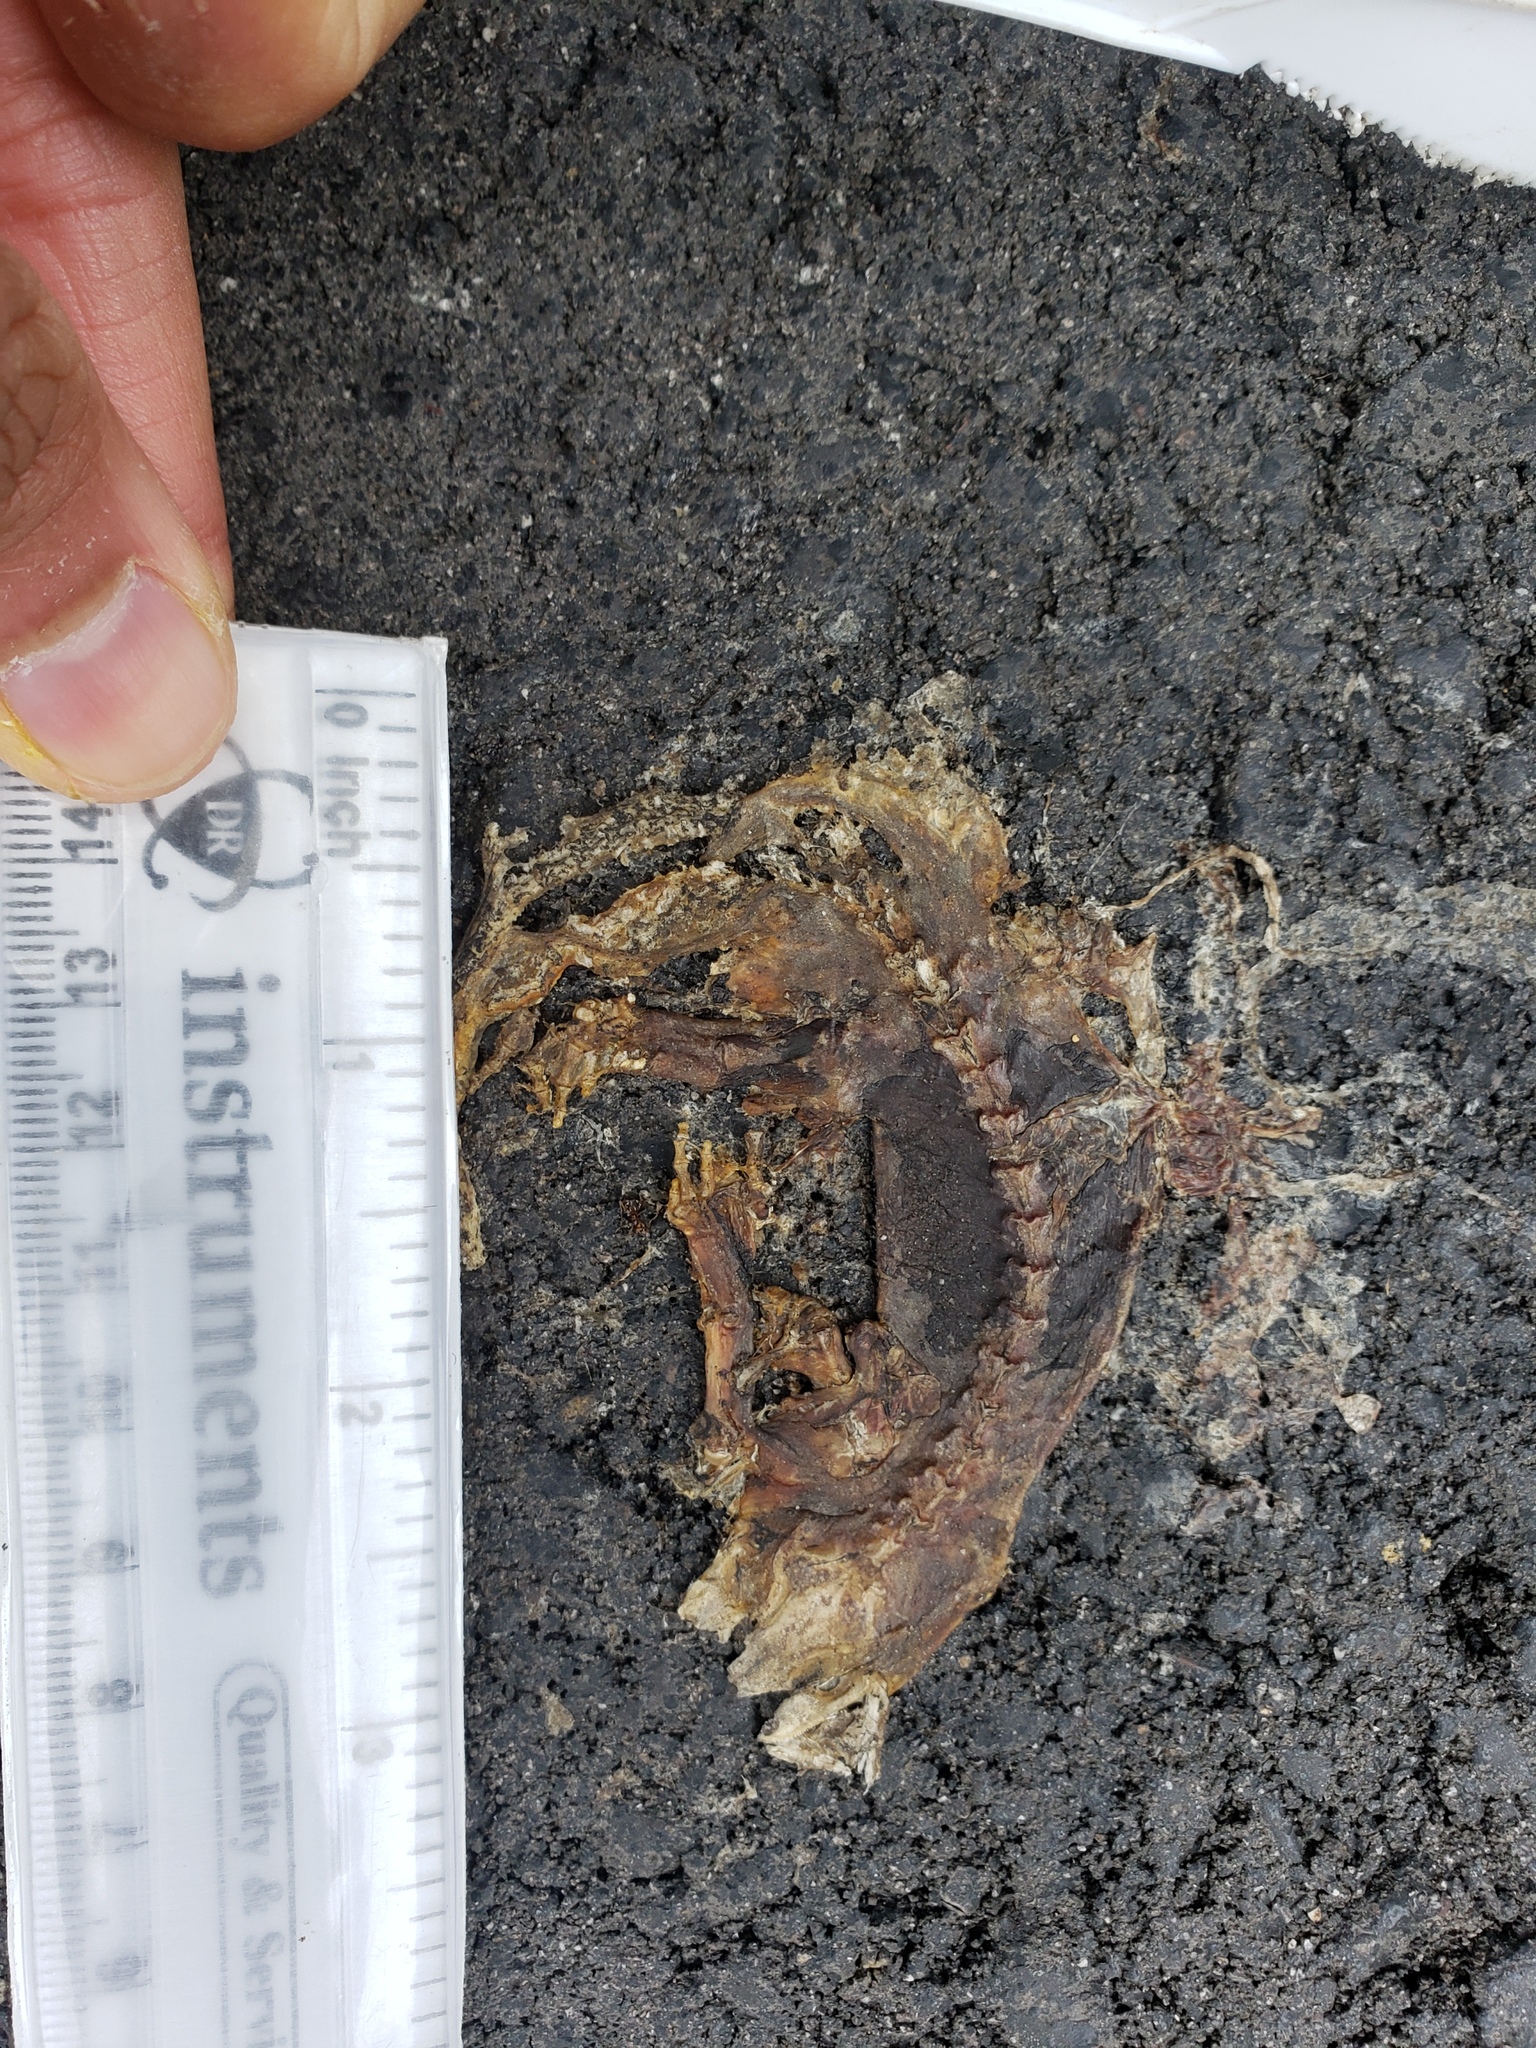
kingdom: Animalia
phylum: Chordata
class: Amphibia
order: Caudata
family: Salamandridae
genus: Taricha
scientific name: Taricha
